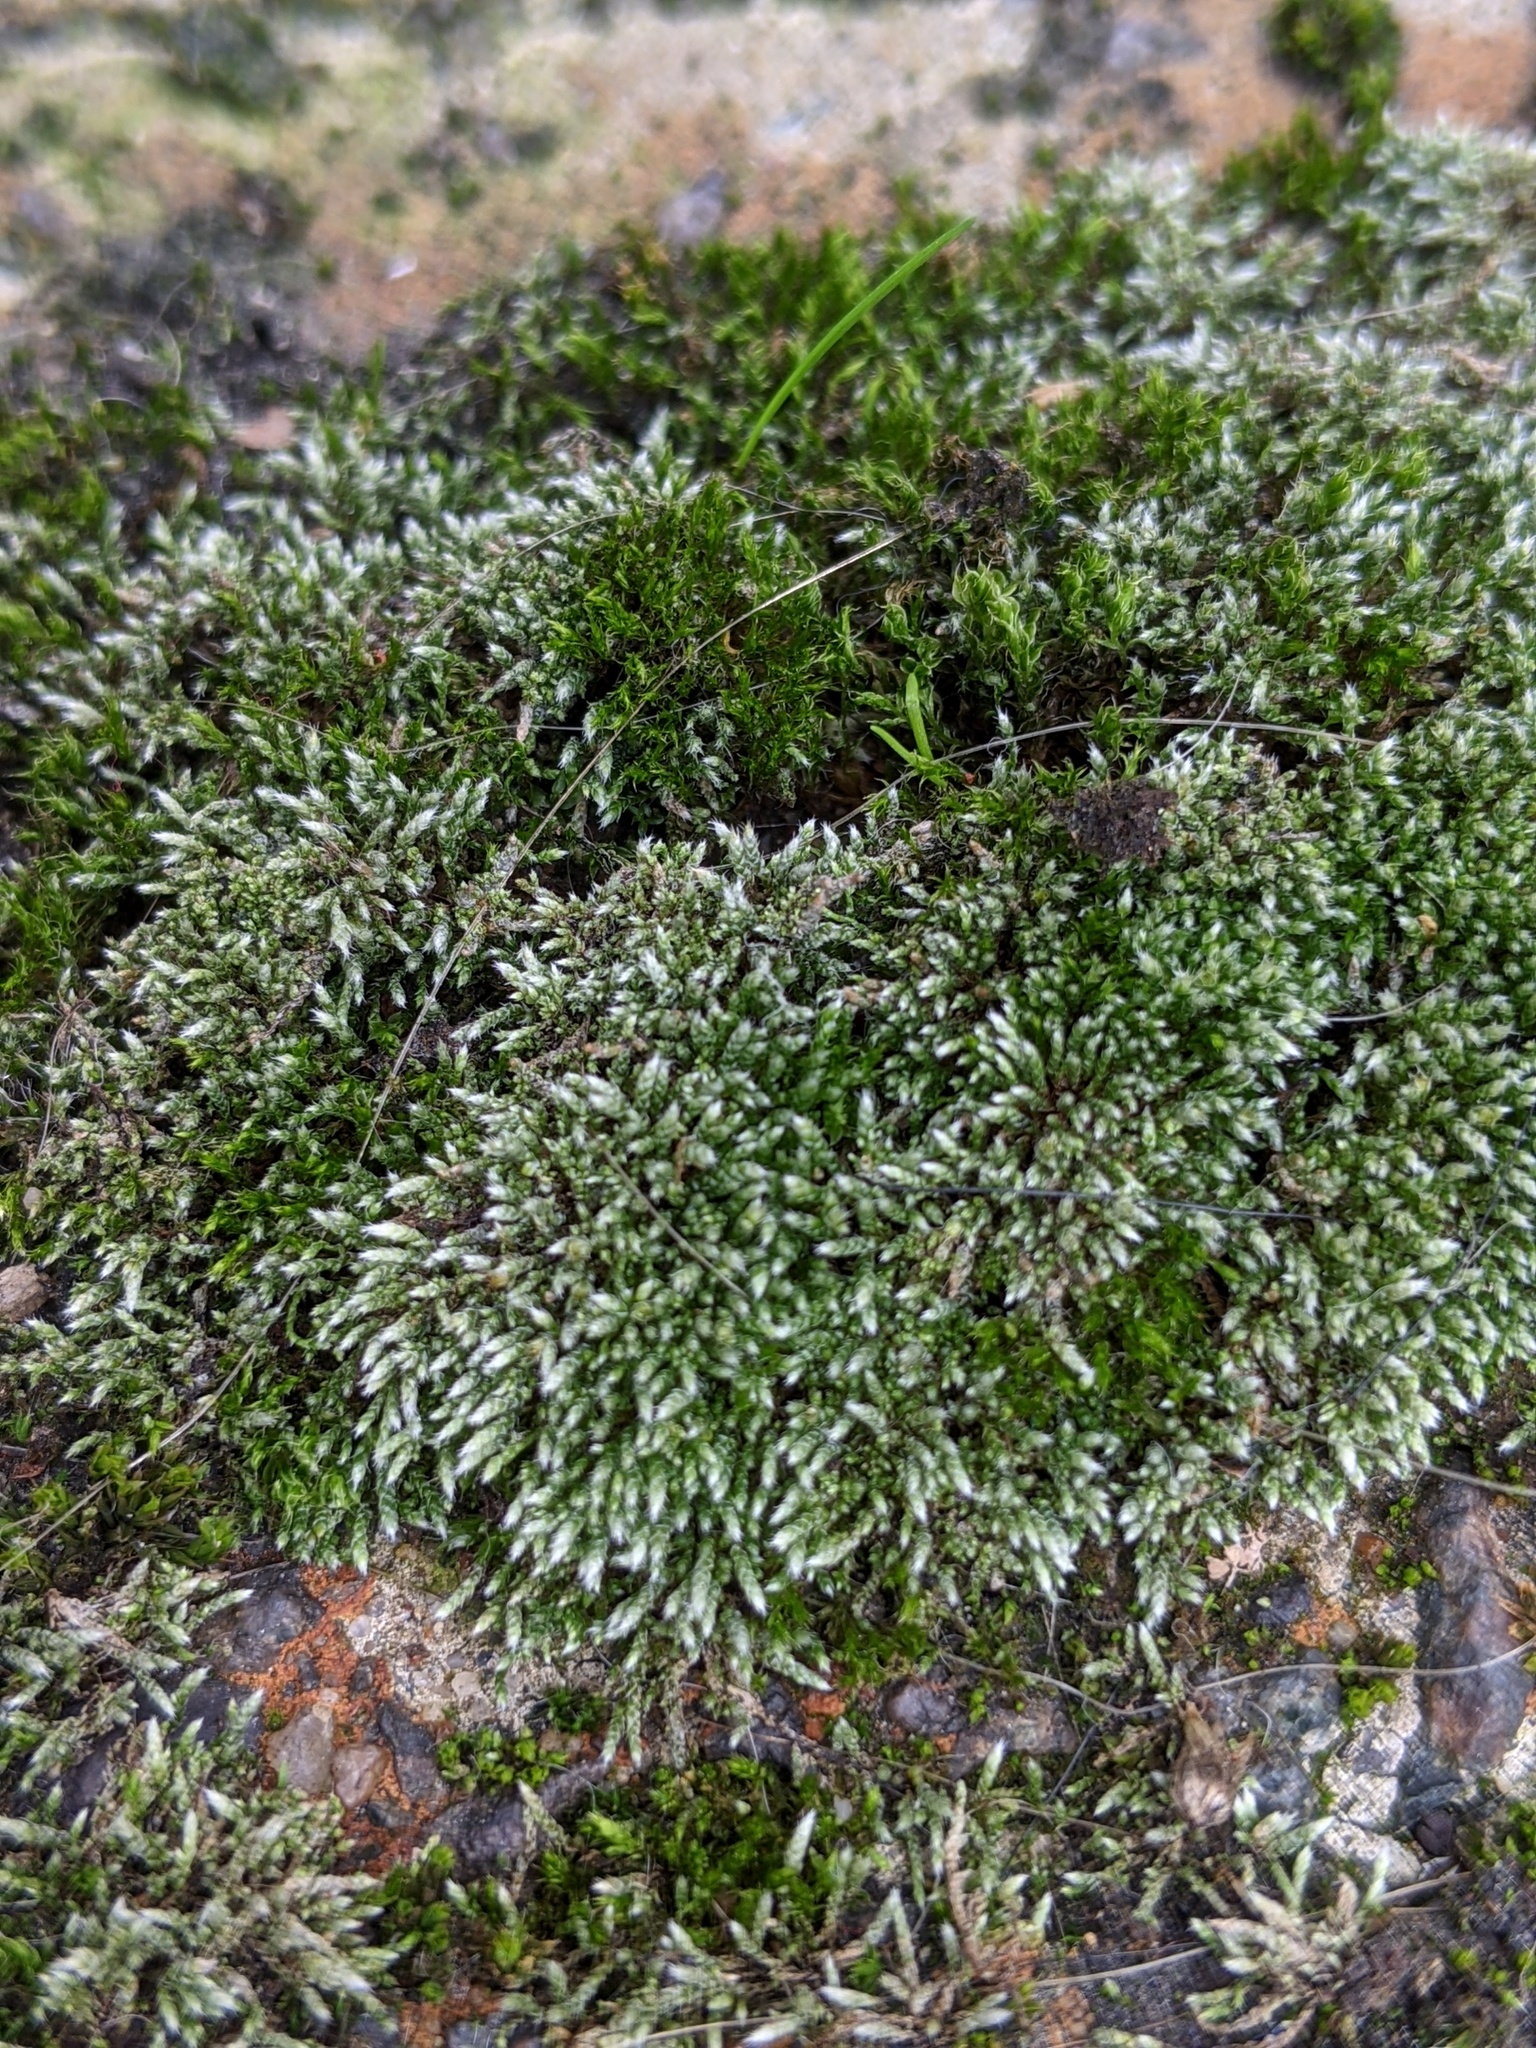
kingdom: Plantae
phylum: Bryophyta
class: Bryopsida
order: Bryales
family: Bryaceae
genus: Bryum
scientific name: Bryum argenteum
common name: Silver-moss
